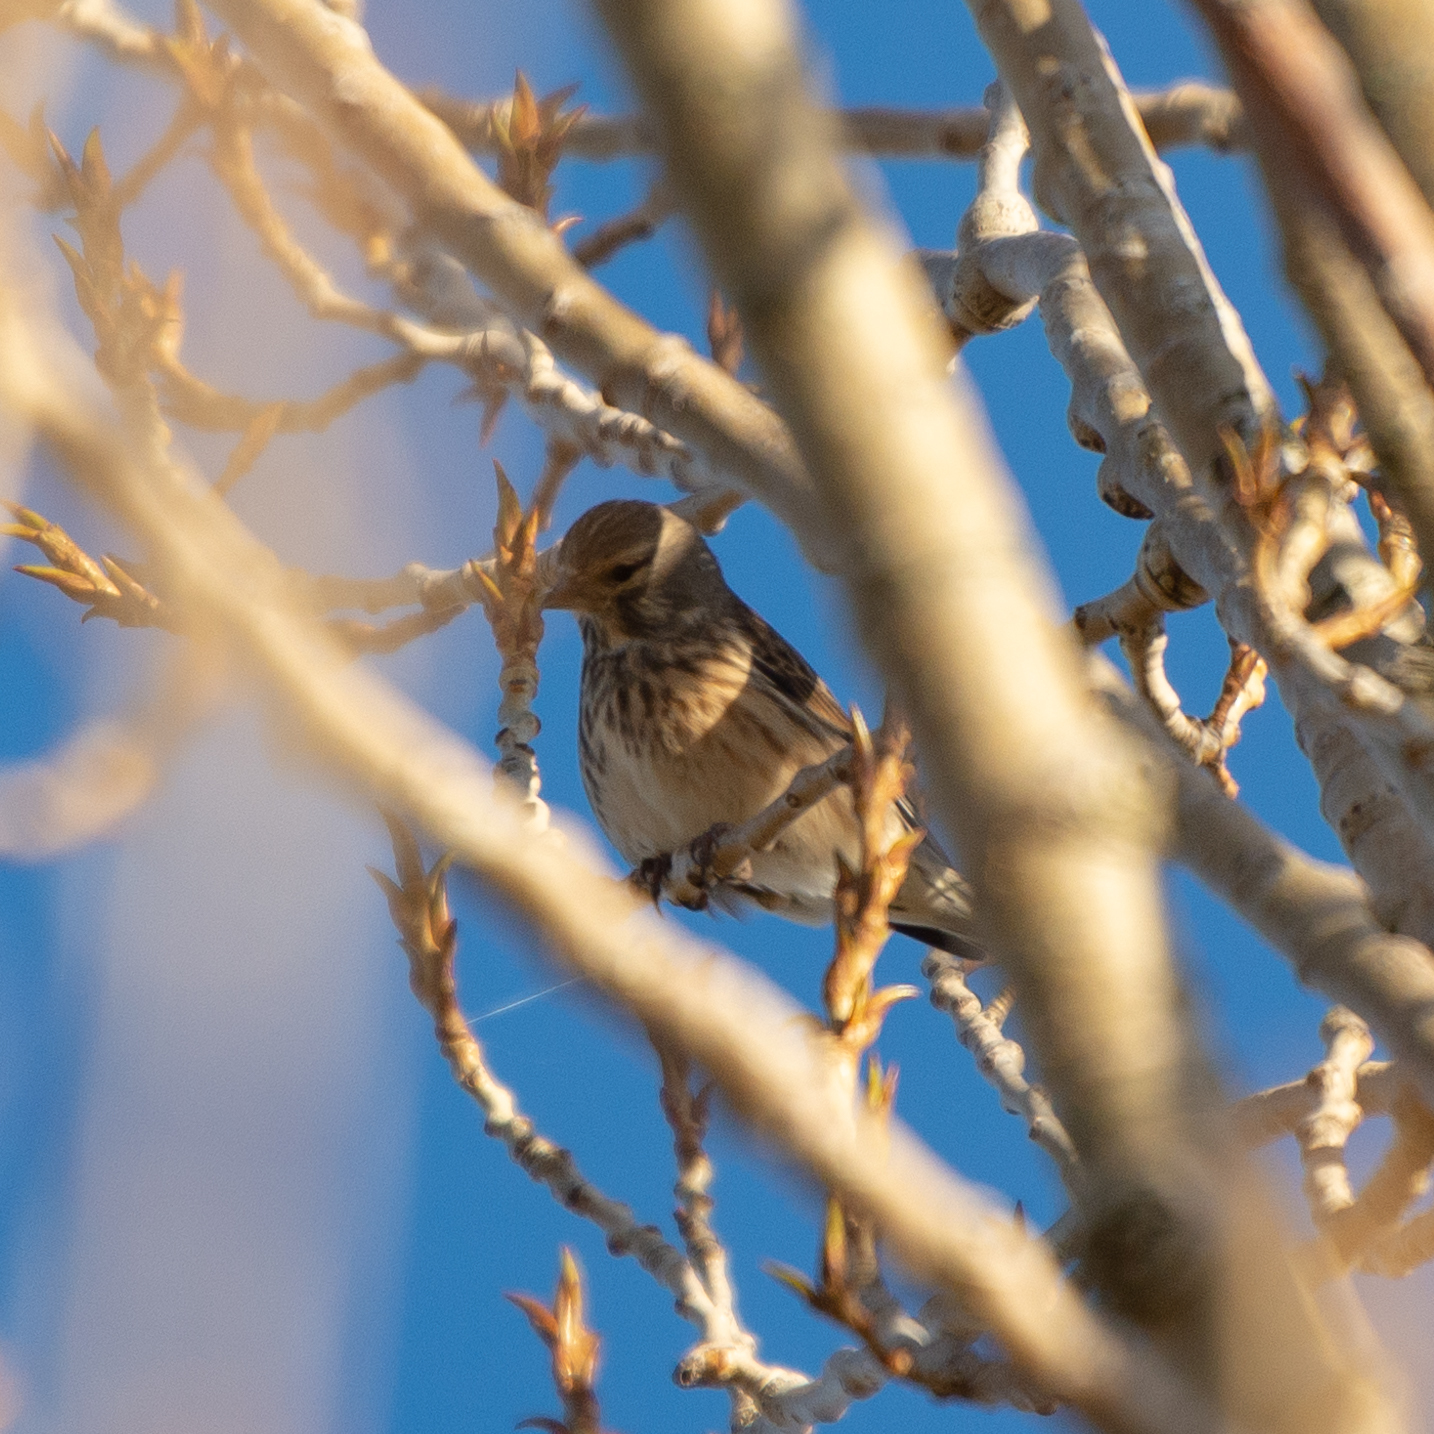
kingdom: Animalia
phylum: Chordata
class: Aves
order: Passeriformes
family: Fringillidae
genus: Linaria
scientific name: Linaria cannabina
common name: Common linnet
